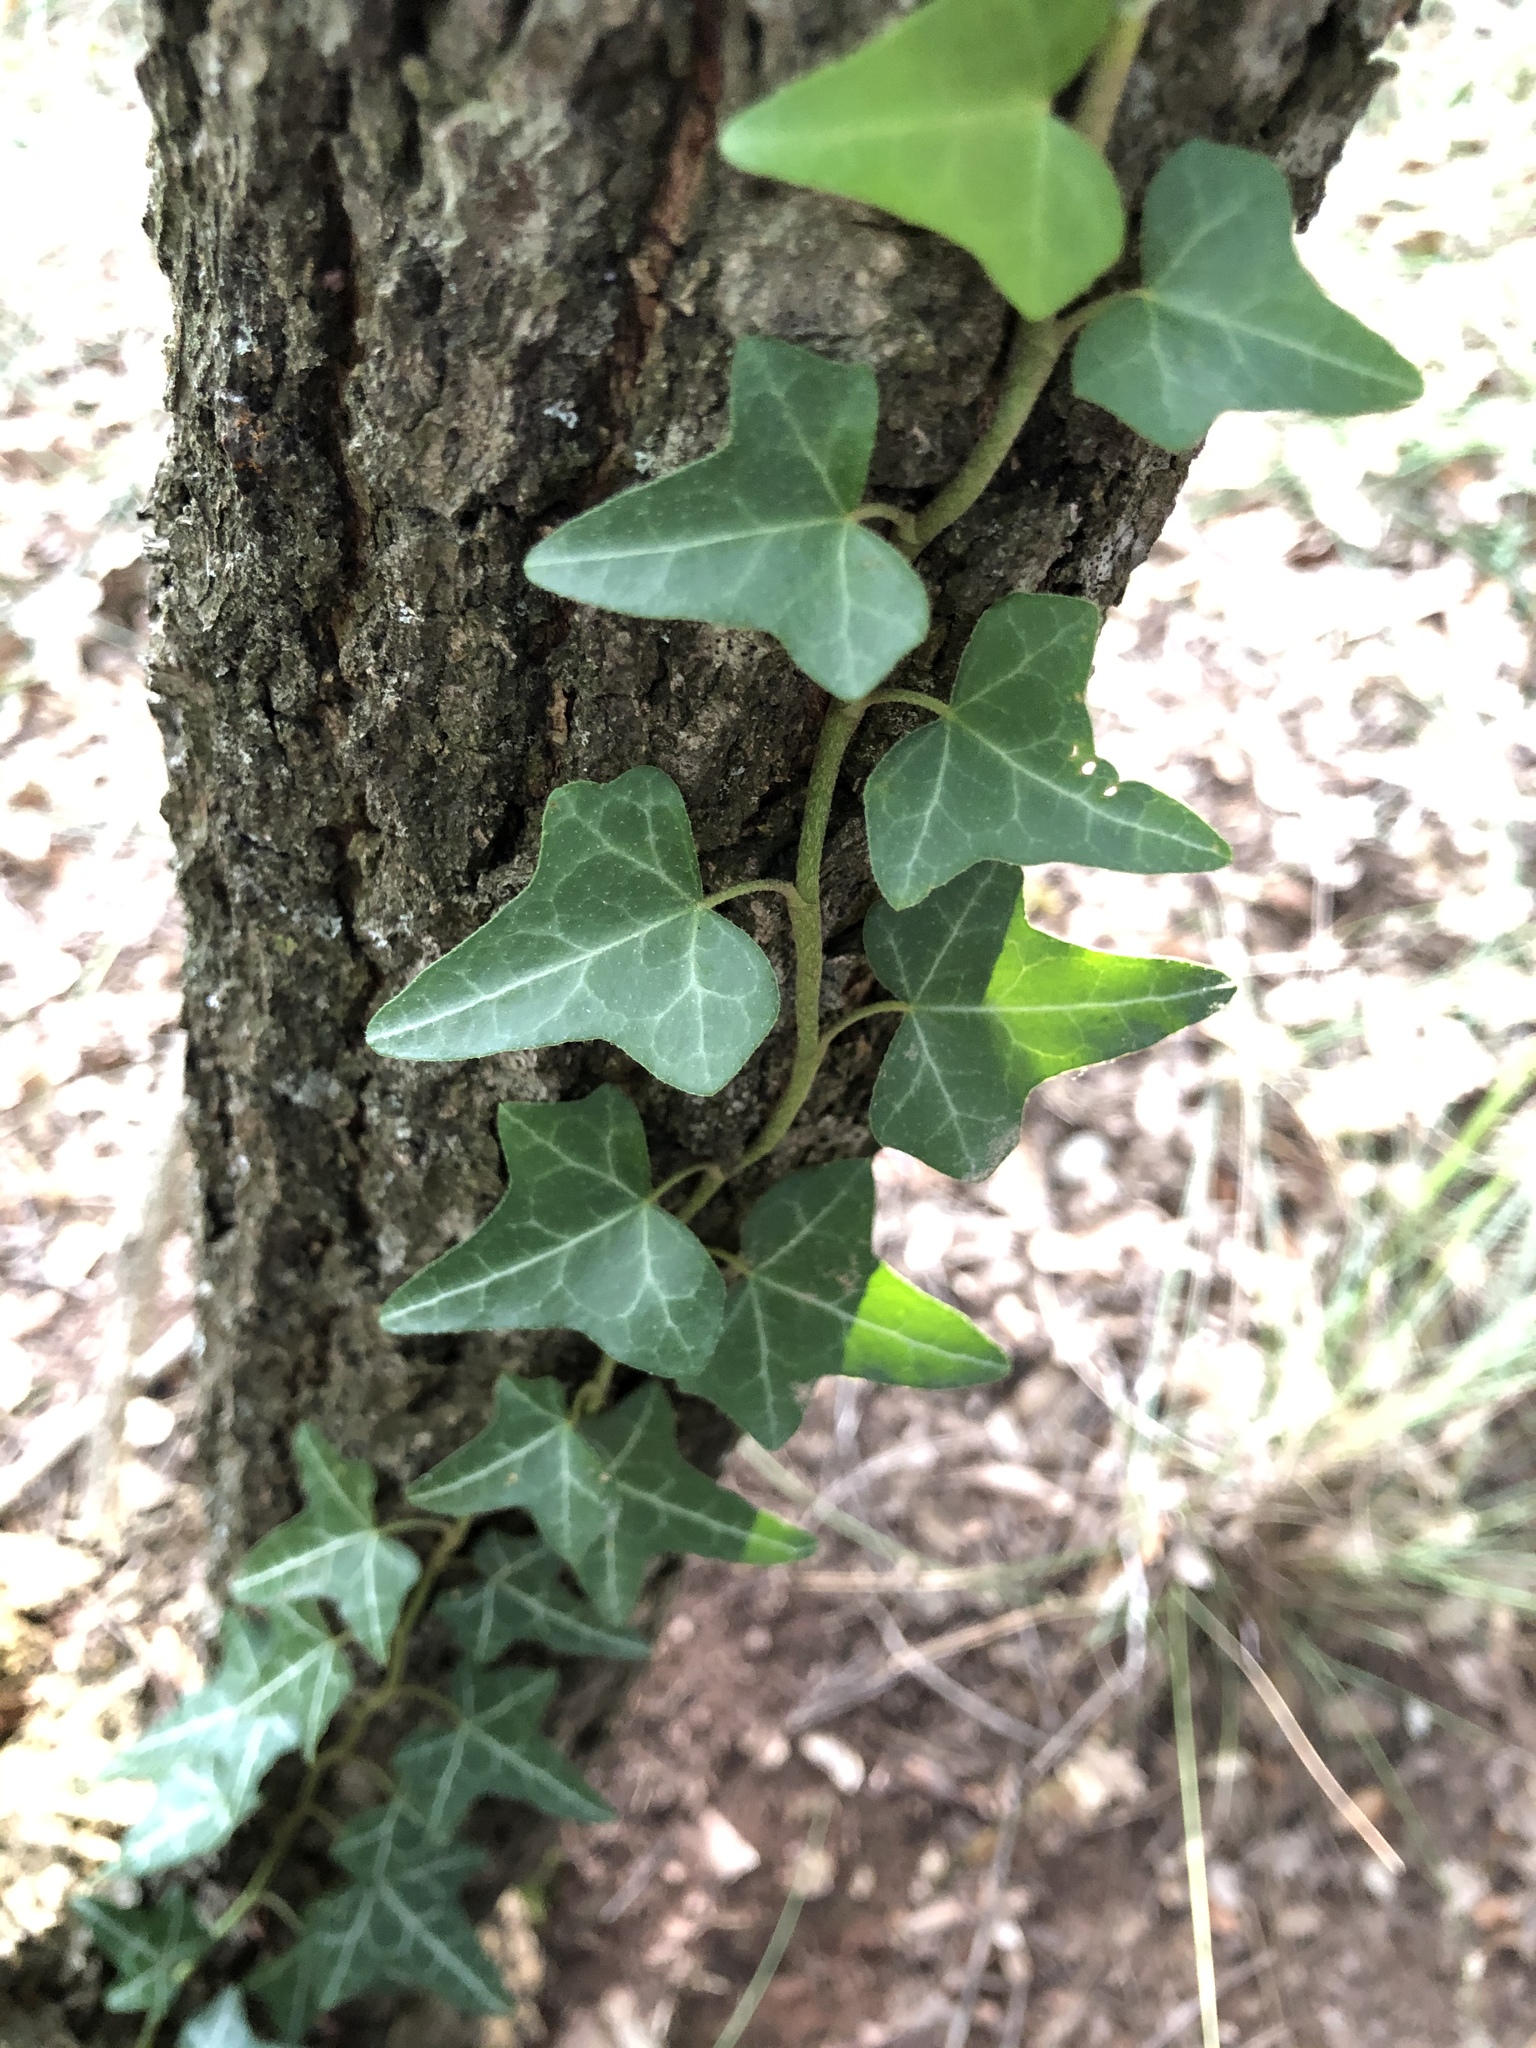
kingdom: Plantae
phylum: Tracheophyta
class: Magnoliopsida
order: Apiales
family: Araliaceae
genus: Hedera
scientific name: Hedera helix
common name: Ivy
